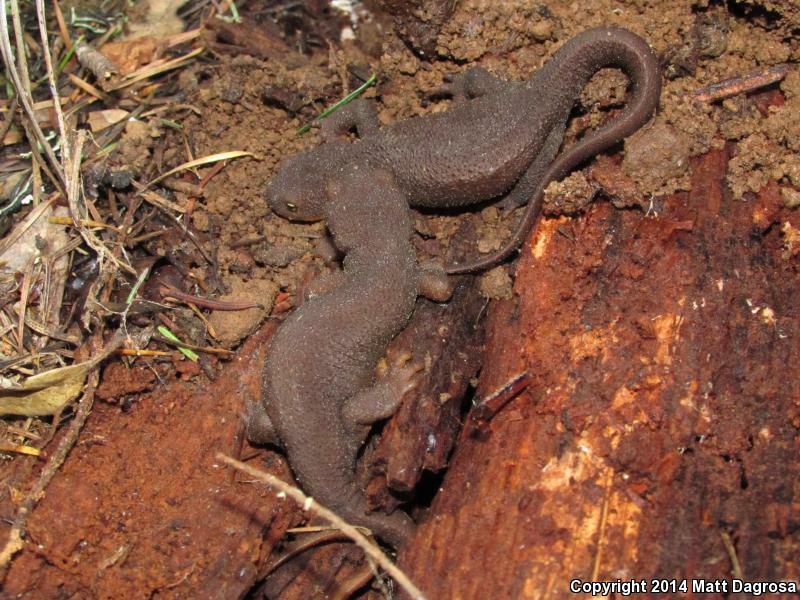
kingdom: Animalia
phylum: Chordata
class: Amphibia
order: Caudata
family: Salamandridae
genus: Taricha
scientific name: Taricha granulosa
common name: Roughskin newt
